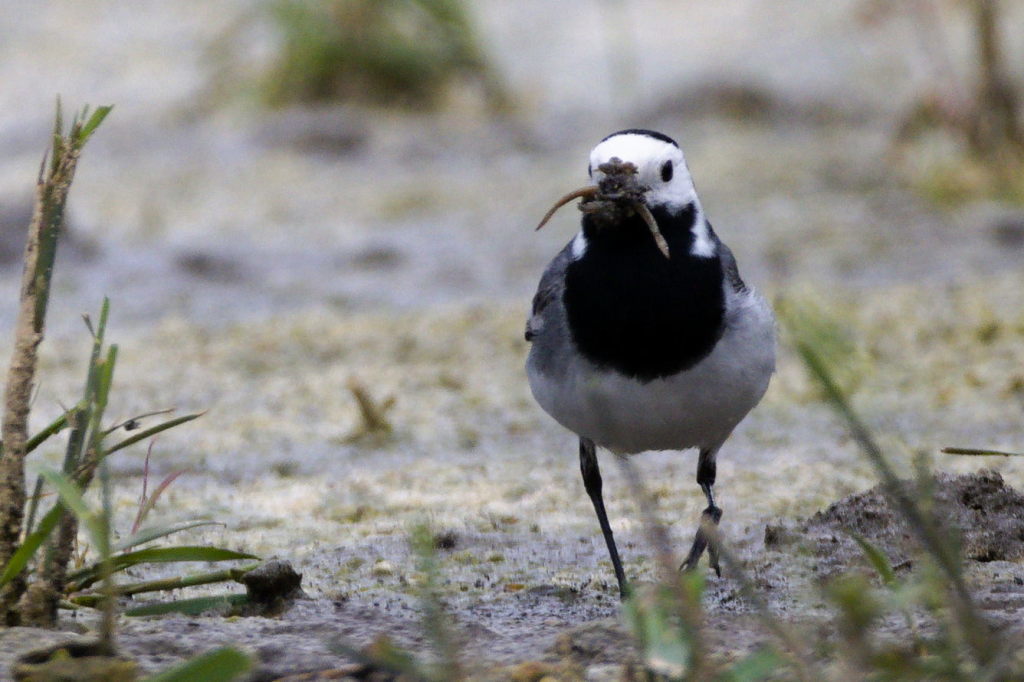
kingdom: Animalia
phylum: Chordata
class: Aves
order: Passeriformes
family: Motacillidae
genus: Motacilla
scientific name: Motacilla alba
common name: White wagtail
